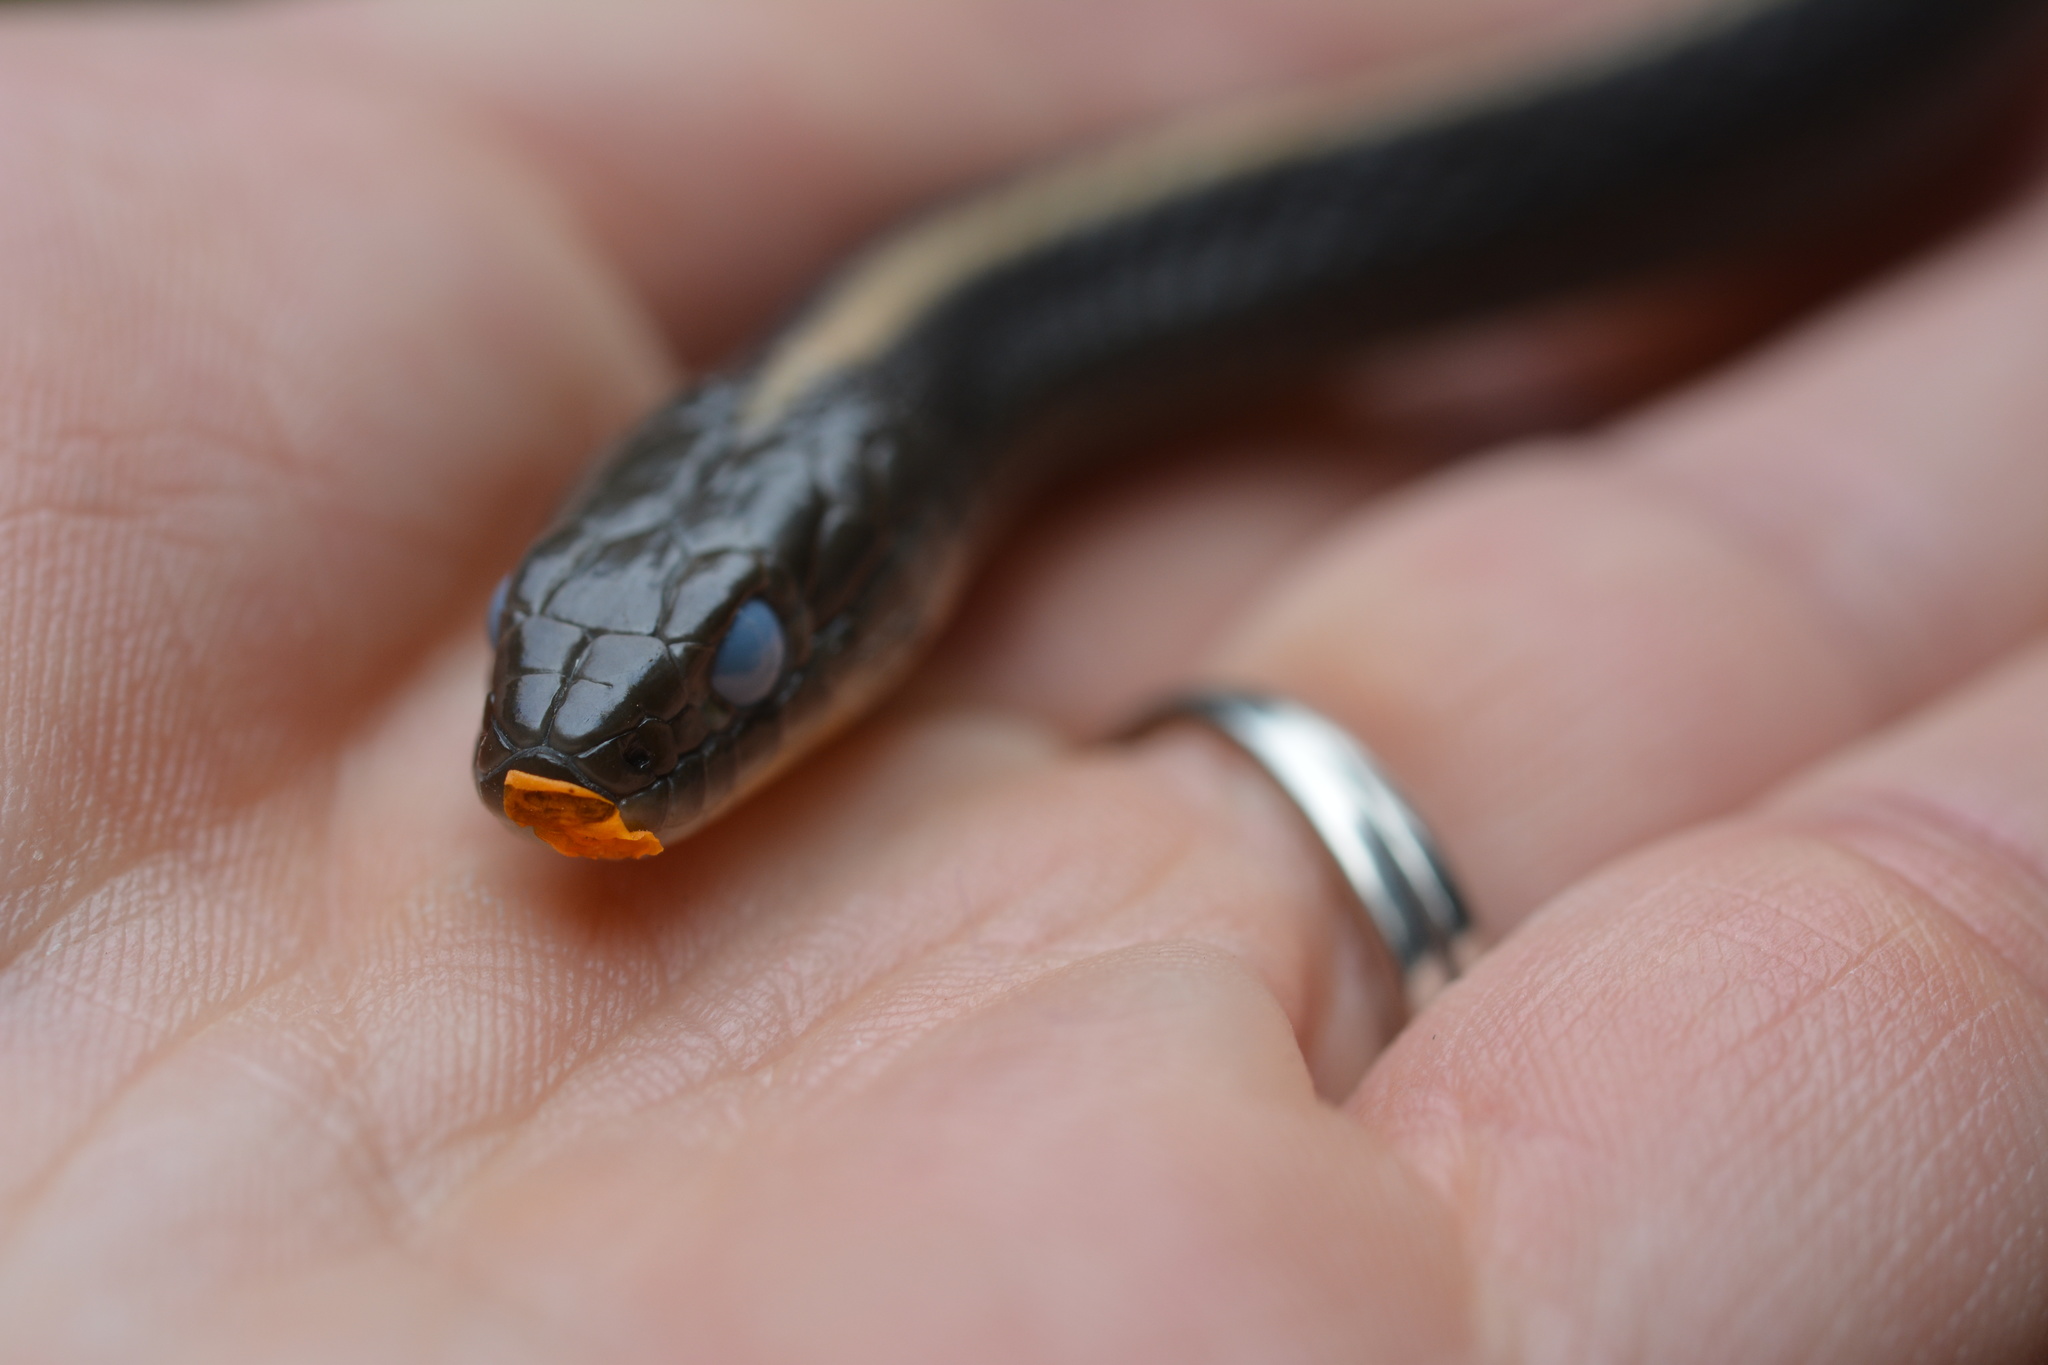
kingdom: Animalia
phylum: Chordata
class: Squamata
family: Colubridae
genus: Thamnophis
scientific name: Thamnophis atratus
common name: Pacific coast aquatic garter snake
